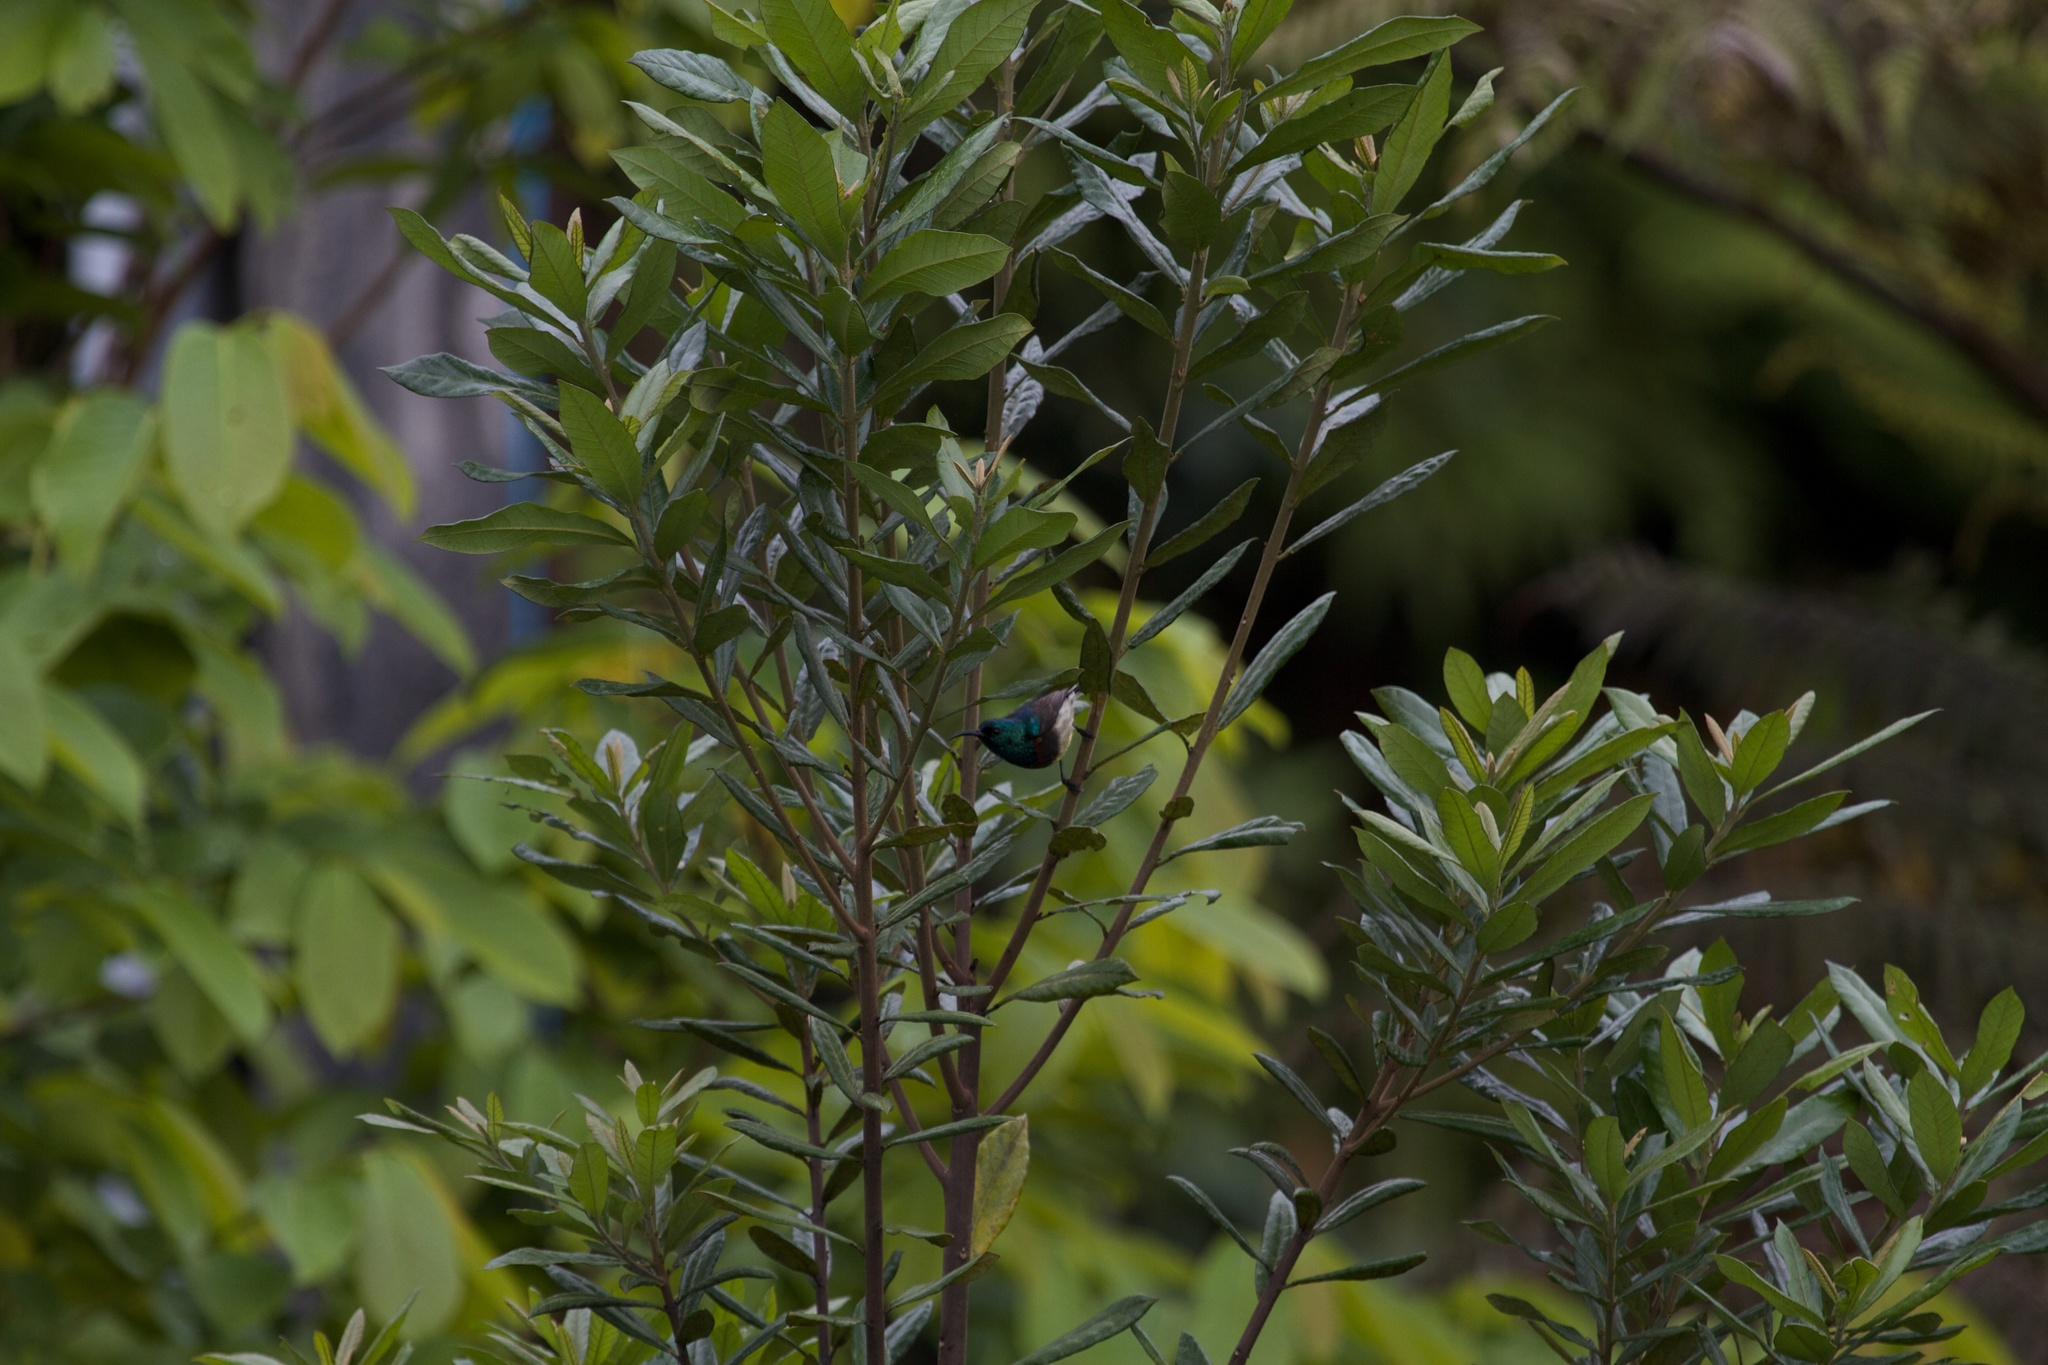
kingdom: Animalia
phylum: Chordata
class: Aves
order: Passeriformes
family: Nectariniidae
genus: Cinnyris
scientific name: Cinnyris sovimanga
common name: Souimanga sunbird
